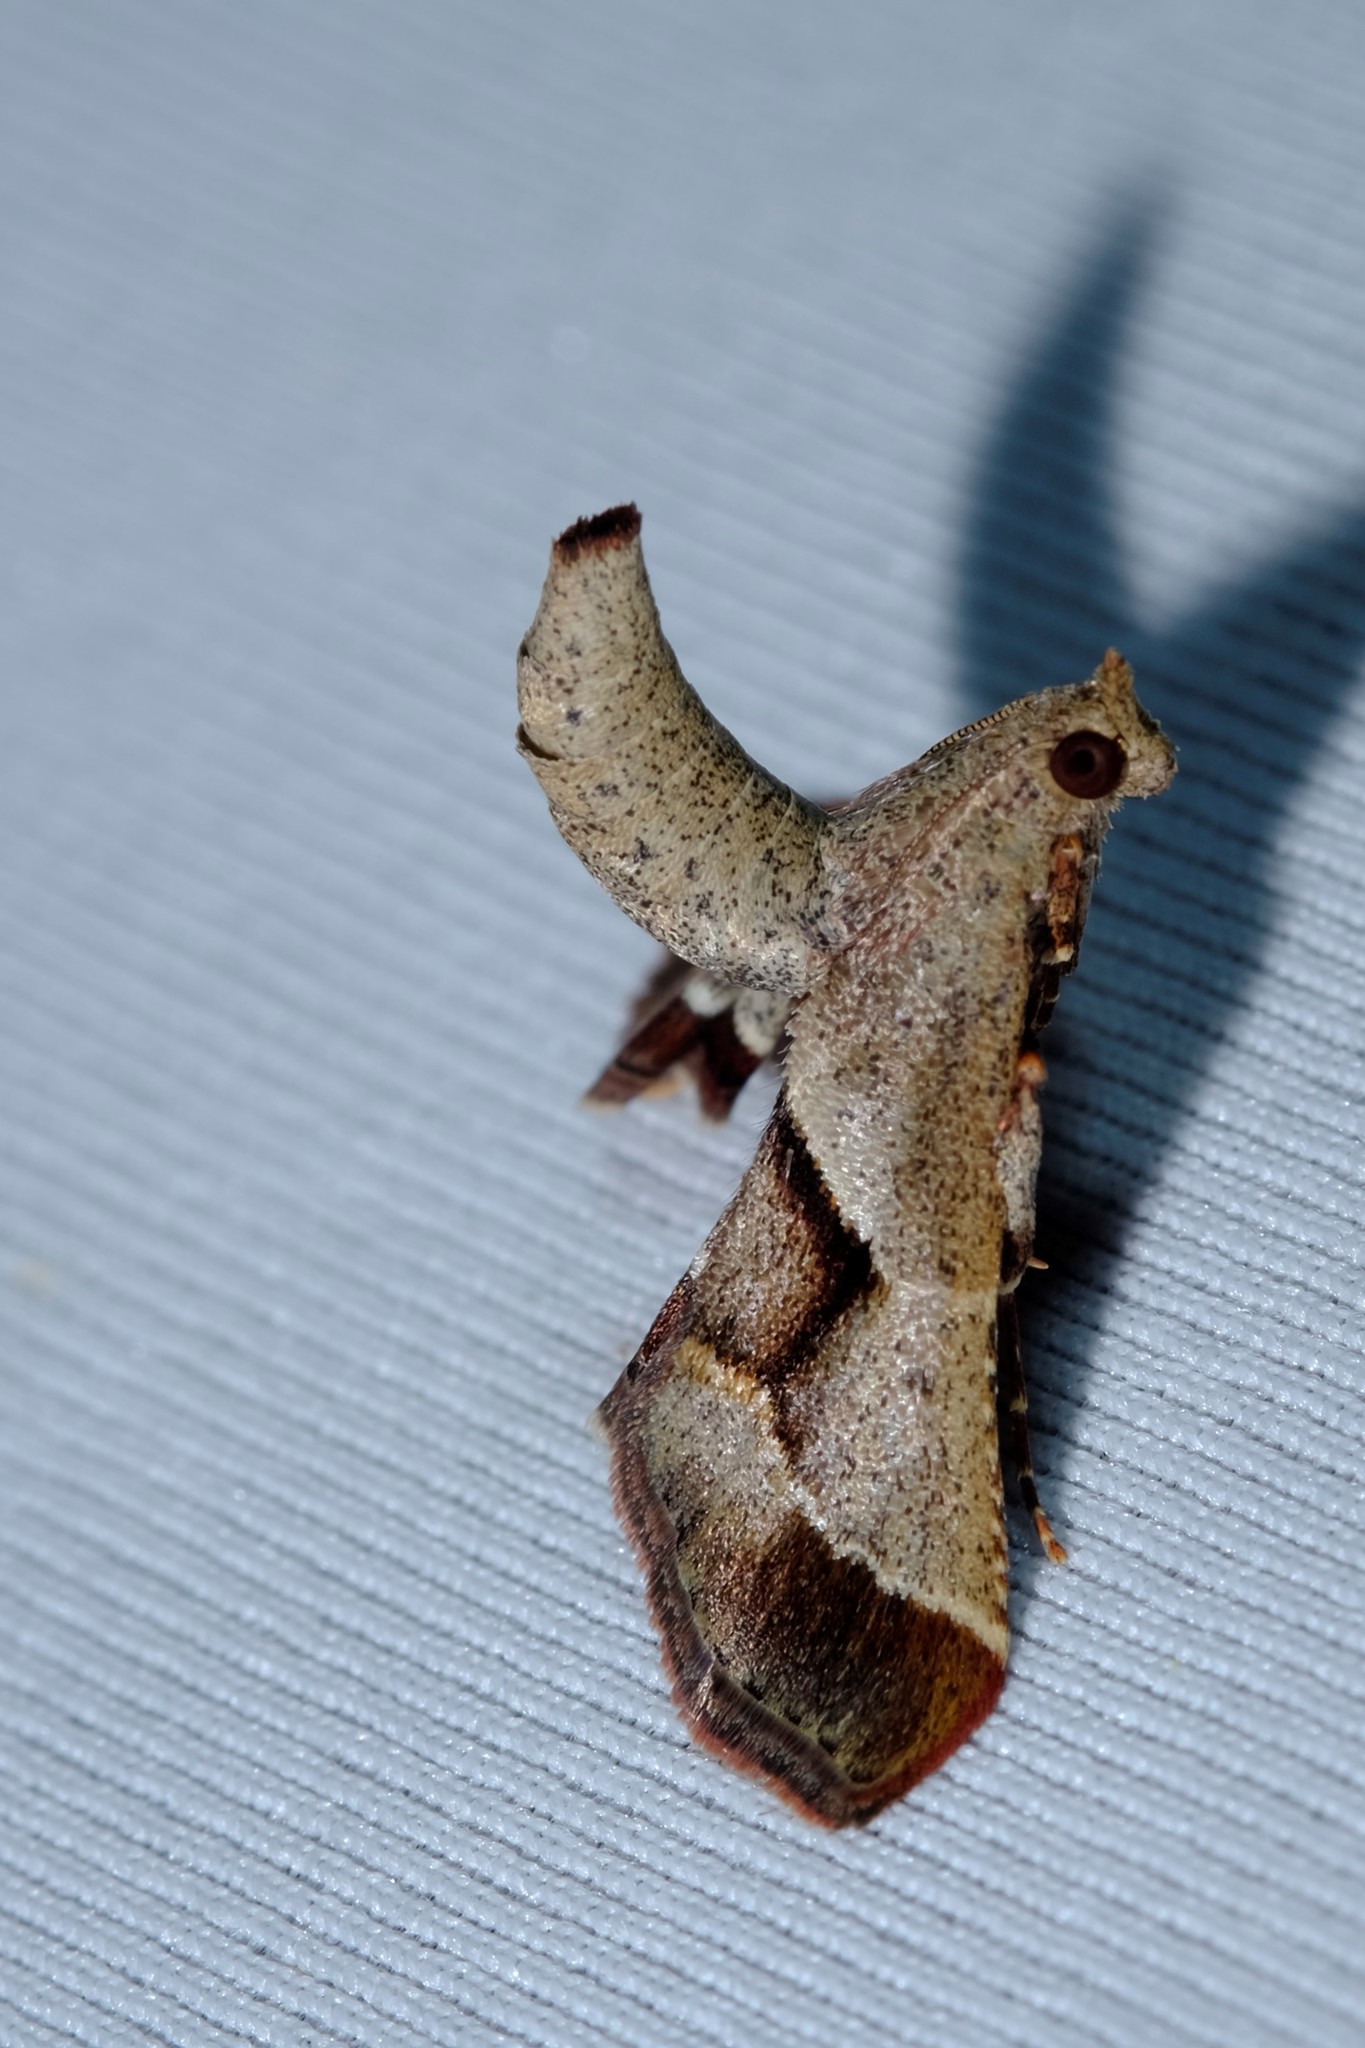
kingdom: Animalia
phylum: Arthropoda
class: Insecta
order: Lepidoptera
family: Pyralidae
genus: Gauna
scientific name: Gauna aegusalis
